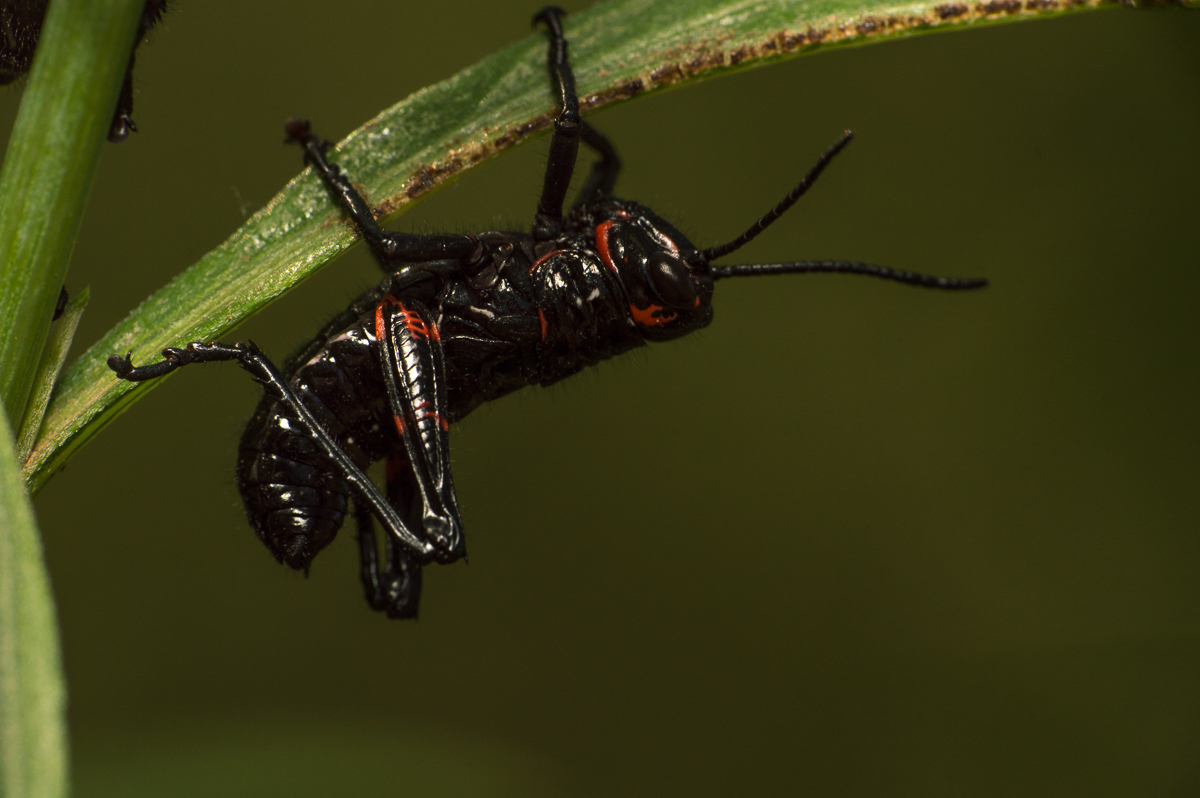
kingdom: Animalia
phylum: Arthropoda
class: Insecta
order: Orthoptera
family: Romaleidae
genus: Chromacris
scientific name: Chromacris speciosa
